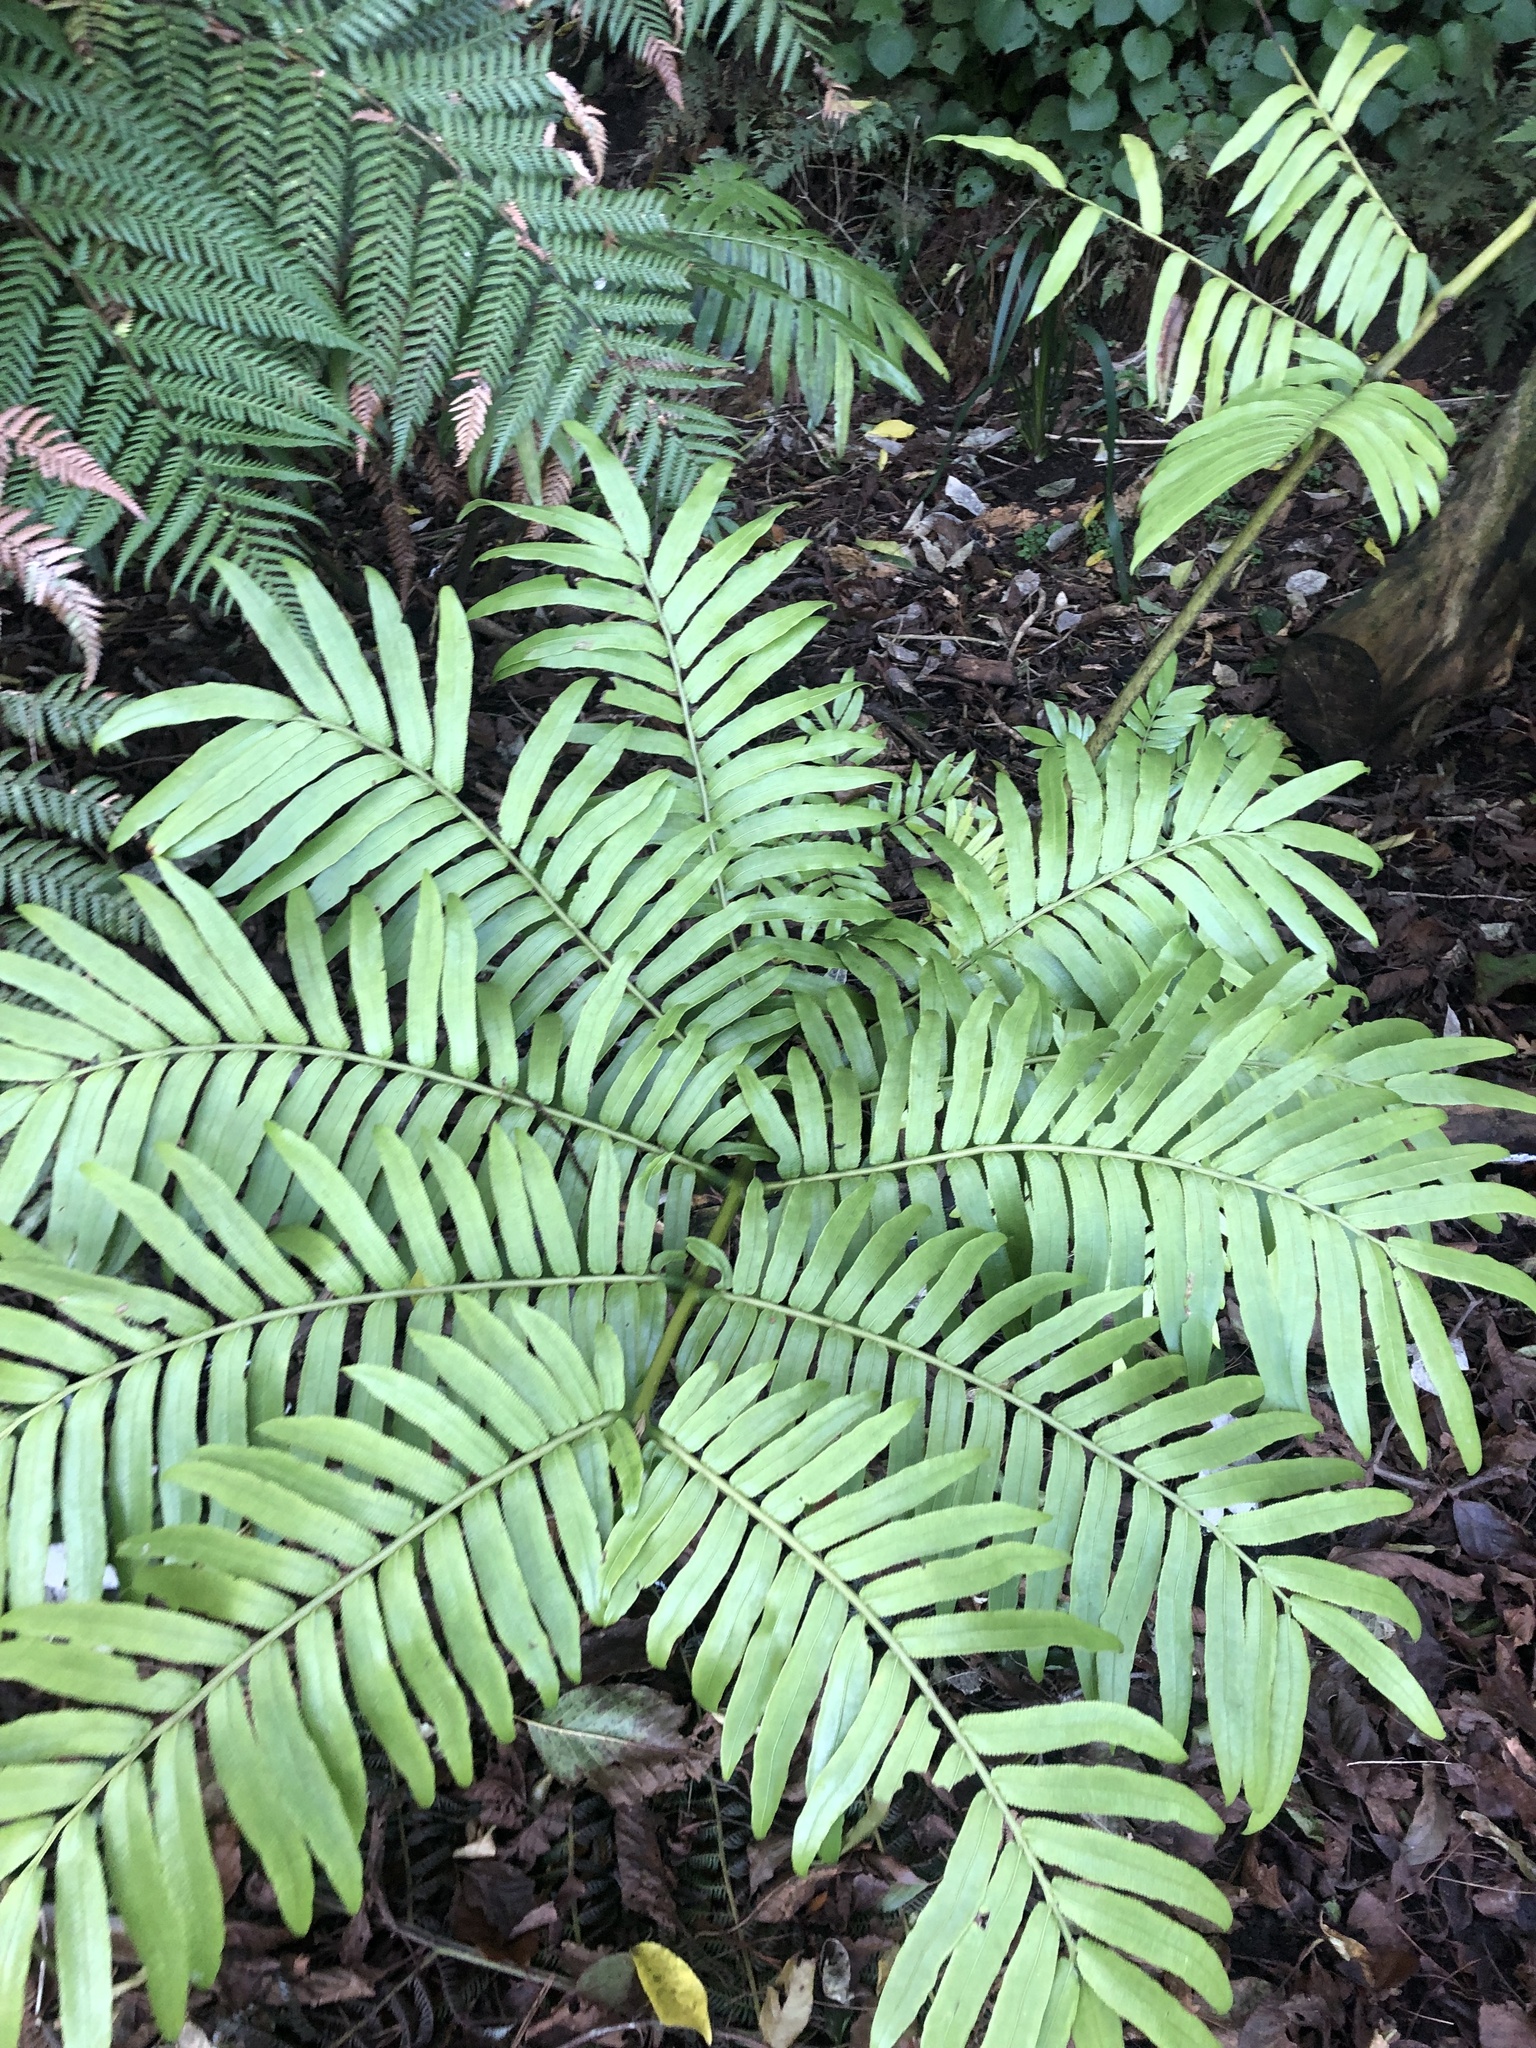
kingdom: Plantae
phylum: Tracheophyta
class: Polypodiopsida
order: Marattiales
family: Marattiaceae
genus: Ptisana
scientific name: Ptisana salicina
